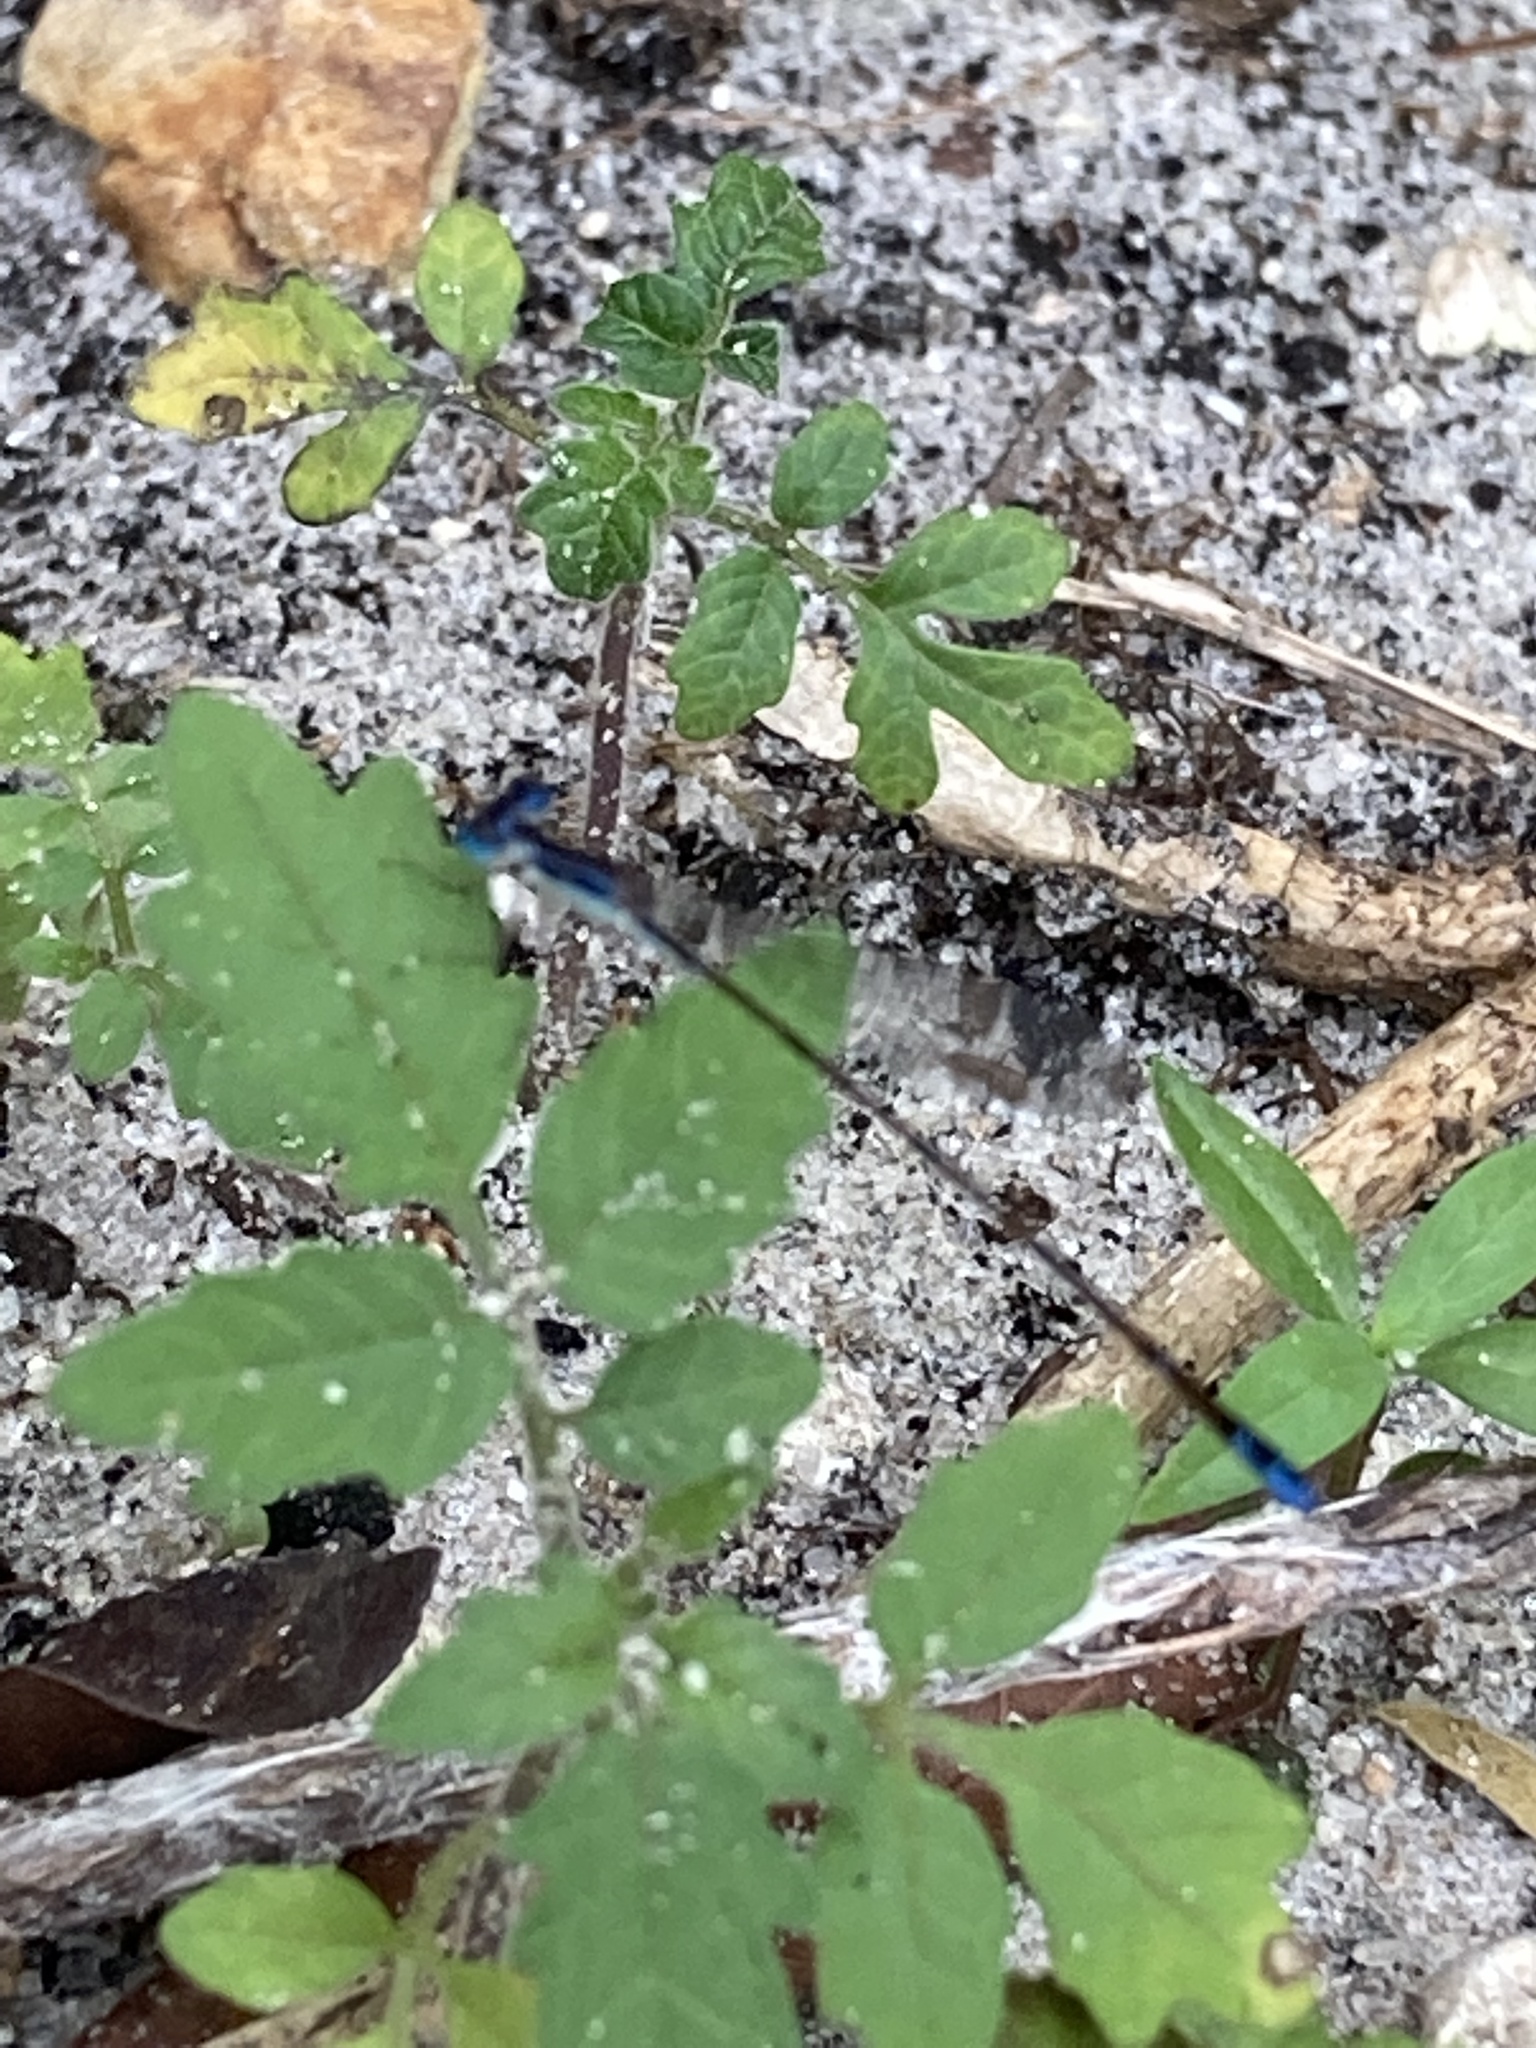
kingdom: Animalia
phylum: Arthropoda
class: Insecta
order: Odonata
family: Coenagrionidae
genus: Nehalennia
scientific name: Nehalennia pallidula
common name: Everglades sprite
